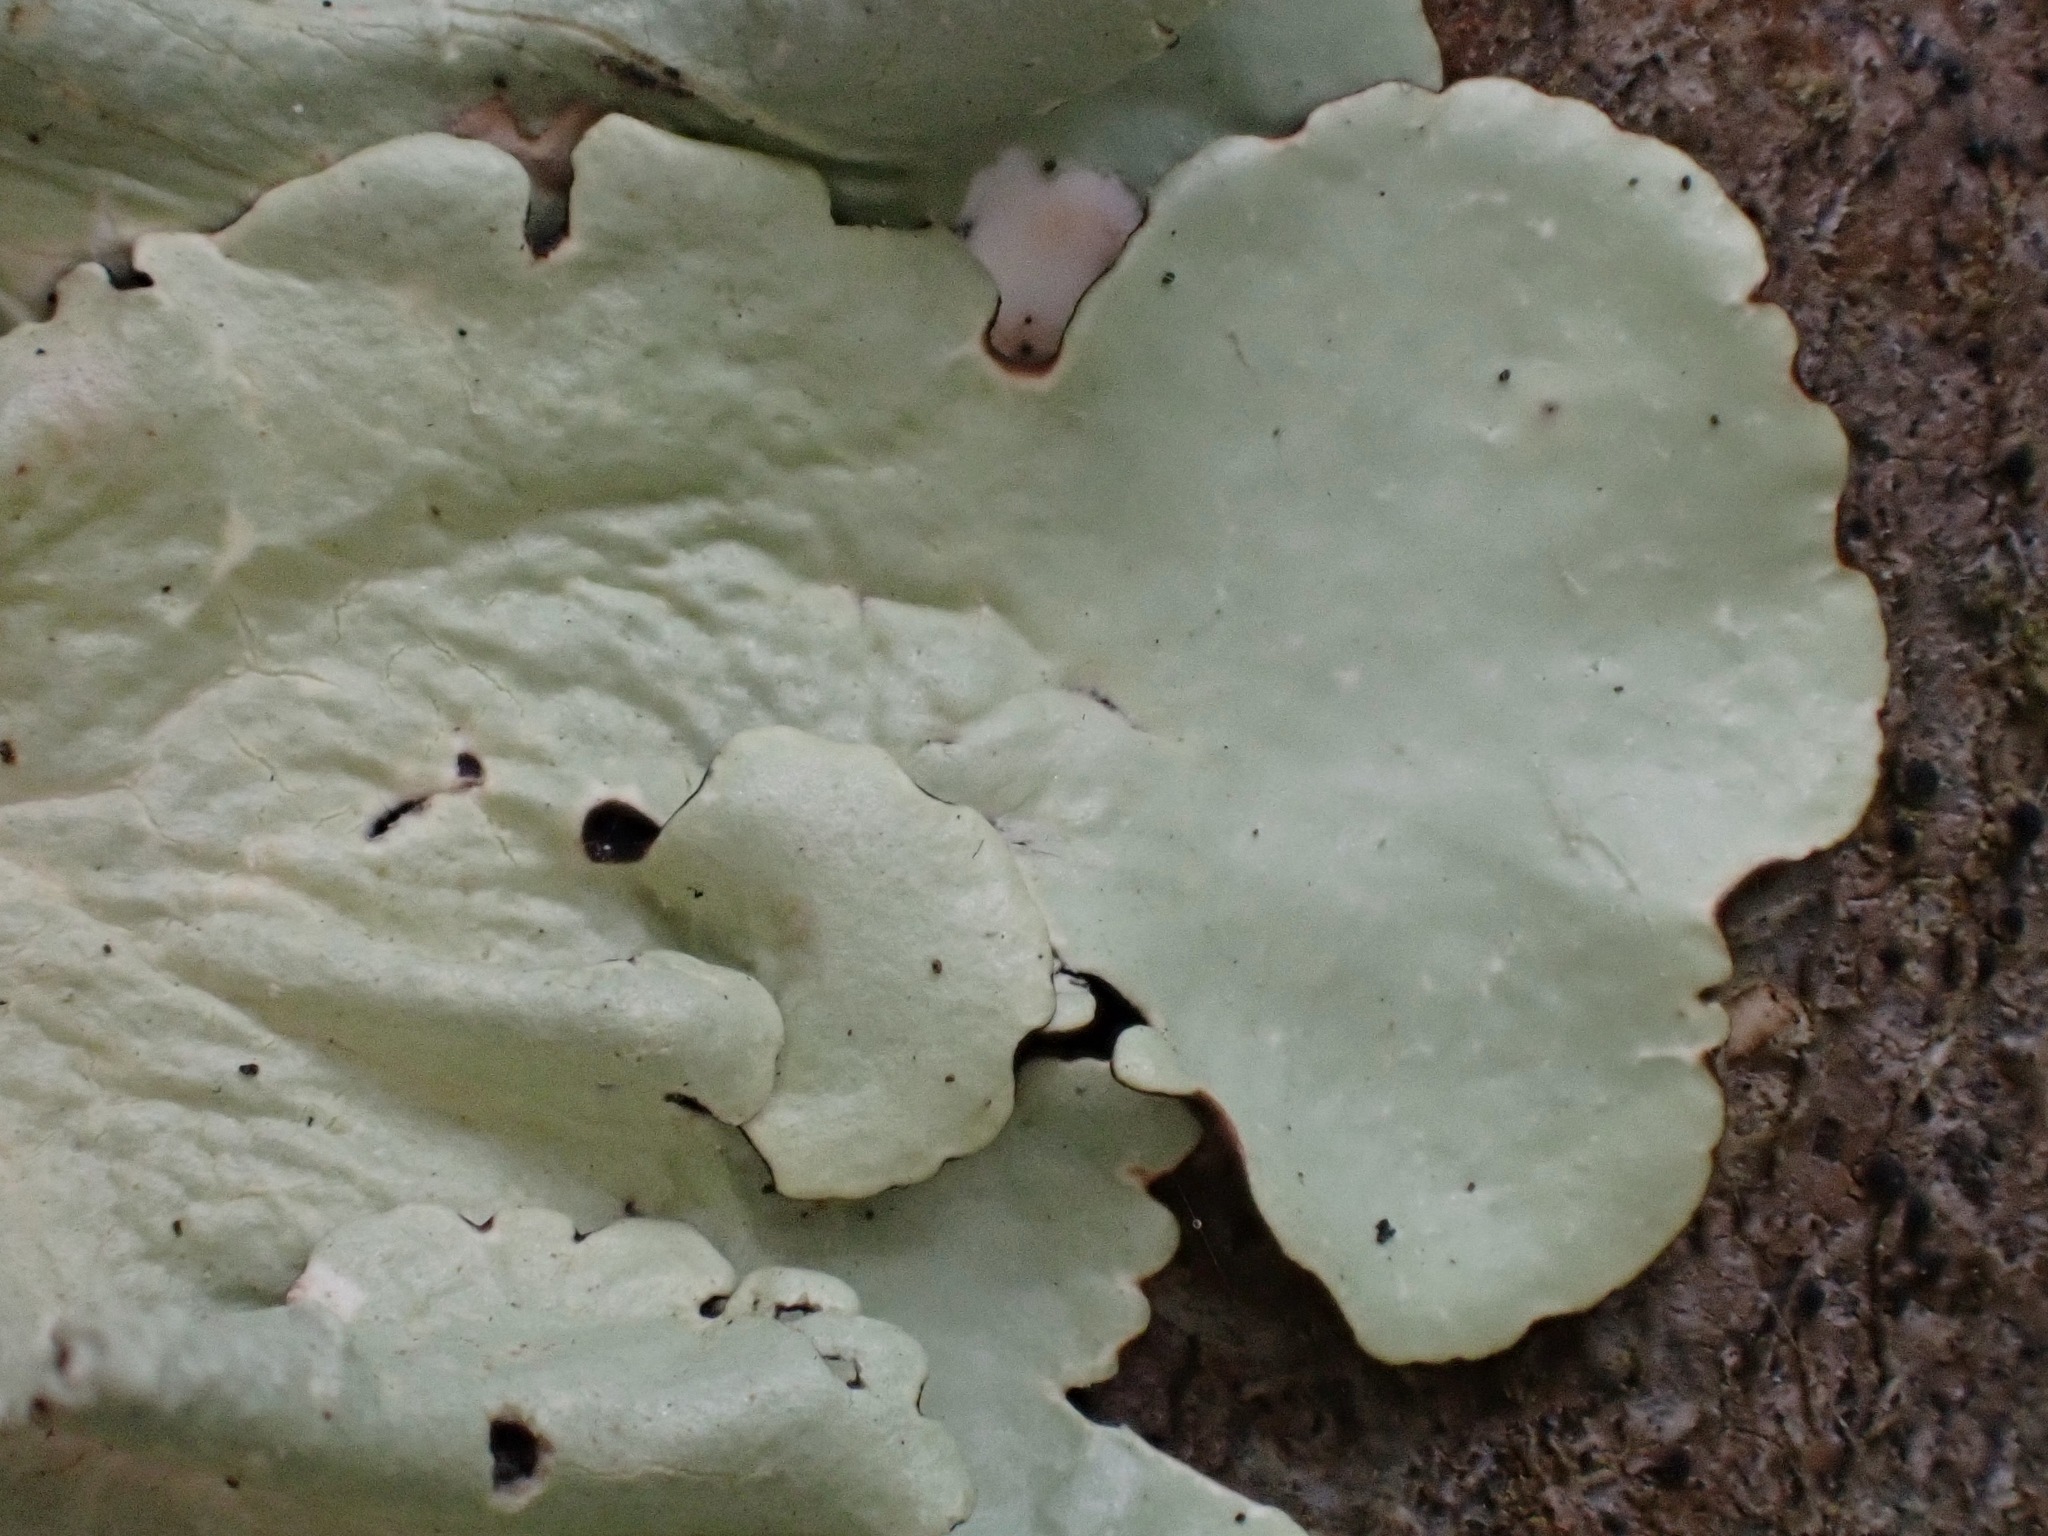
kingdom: Fungi
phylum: Ascomycota
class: Lecanoromycetes
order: Lecanorales
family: Parmeliaceae
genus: Flavoparmelia
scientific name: Flavoparmelia caperata
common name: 40-mile per hour lichen
